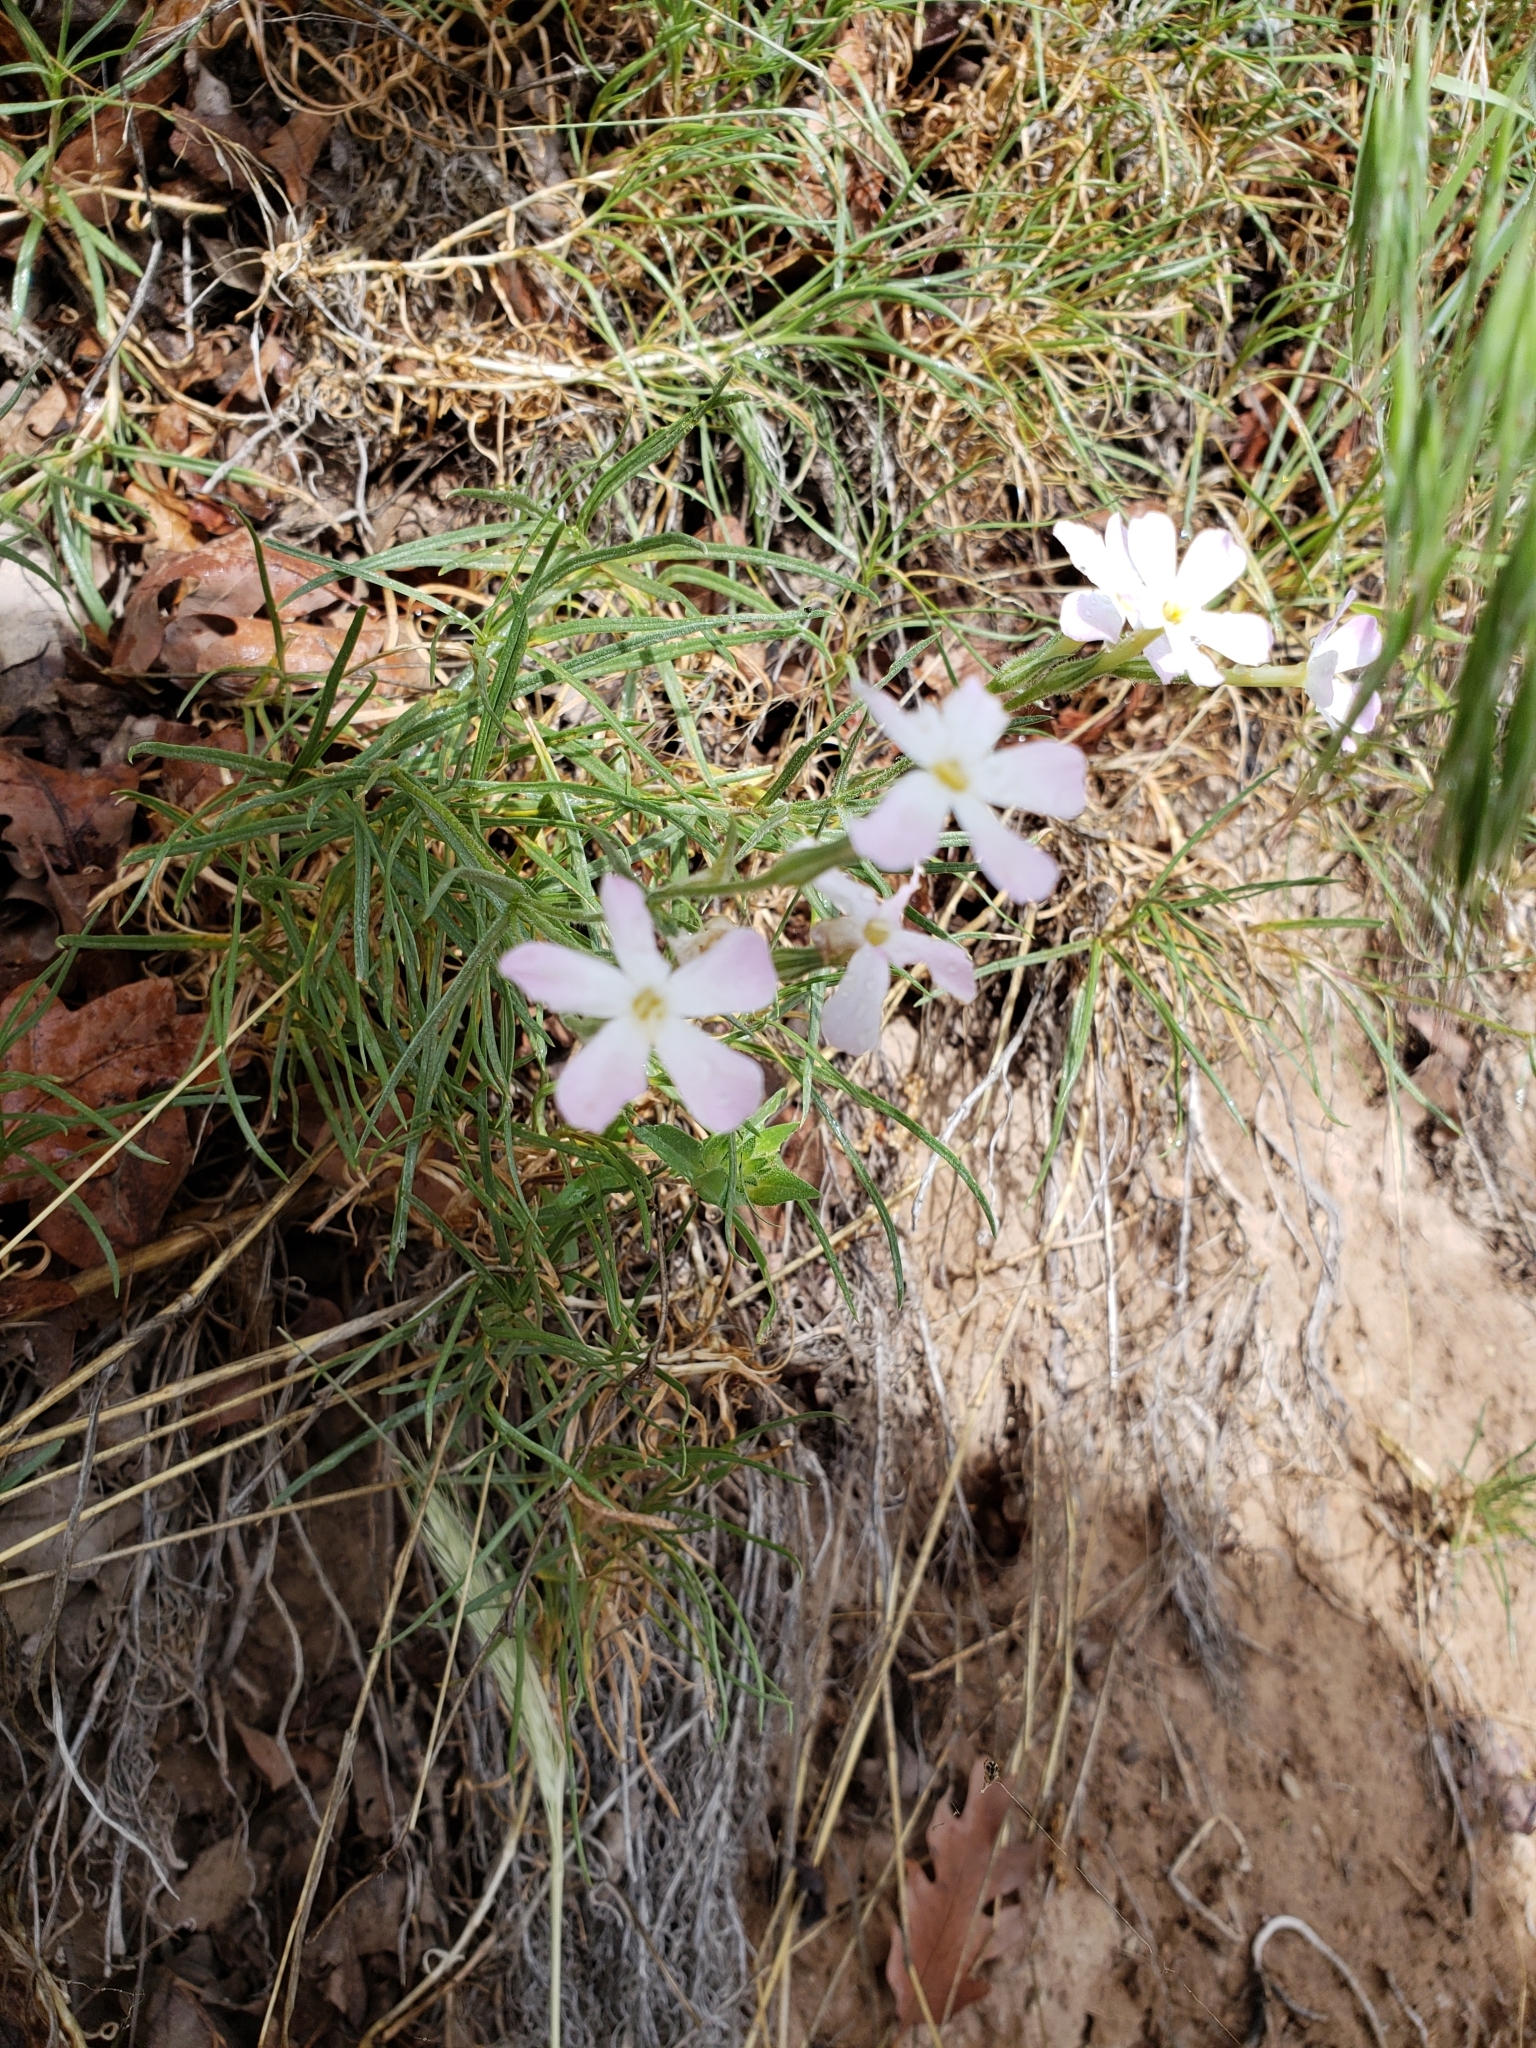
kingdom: Plantae
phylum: Tracheophyta
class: Magnoliopsida
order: Ericales
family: Polemoniaceae
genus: Phlox
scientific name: Phlox longifolia
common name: Longleaf phlox
